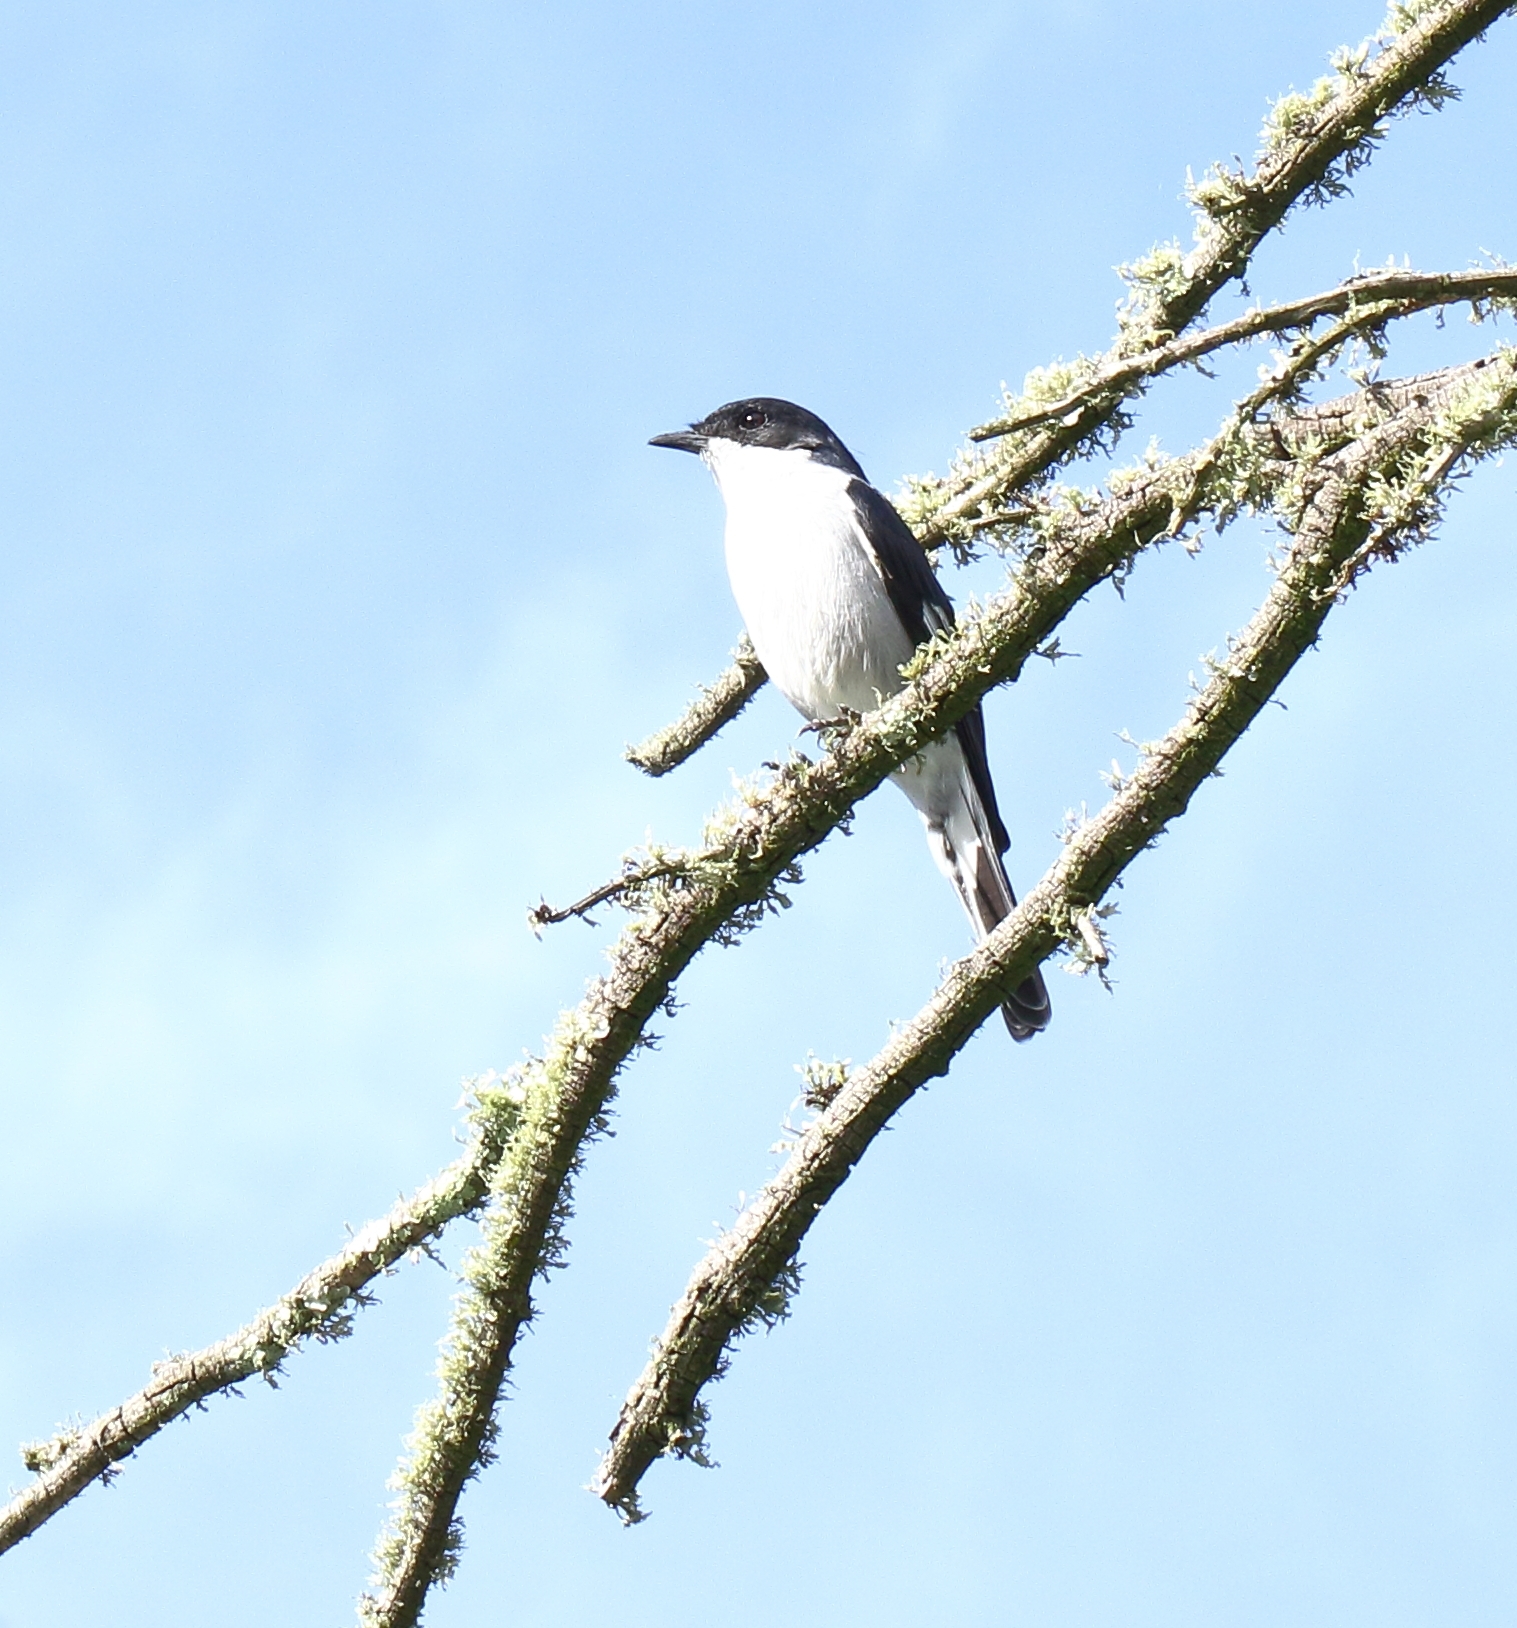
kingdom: Animalia
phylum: Chordata
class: Aves
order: Passeriformes
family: Muscicapidae
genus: Sigelus
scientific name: Sigelus silens
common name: Fiscal flycatcher
